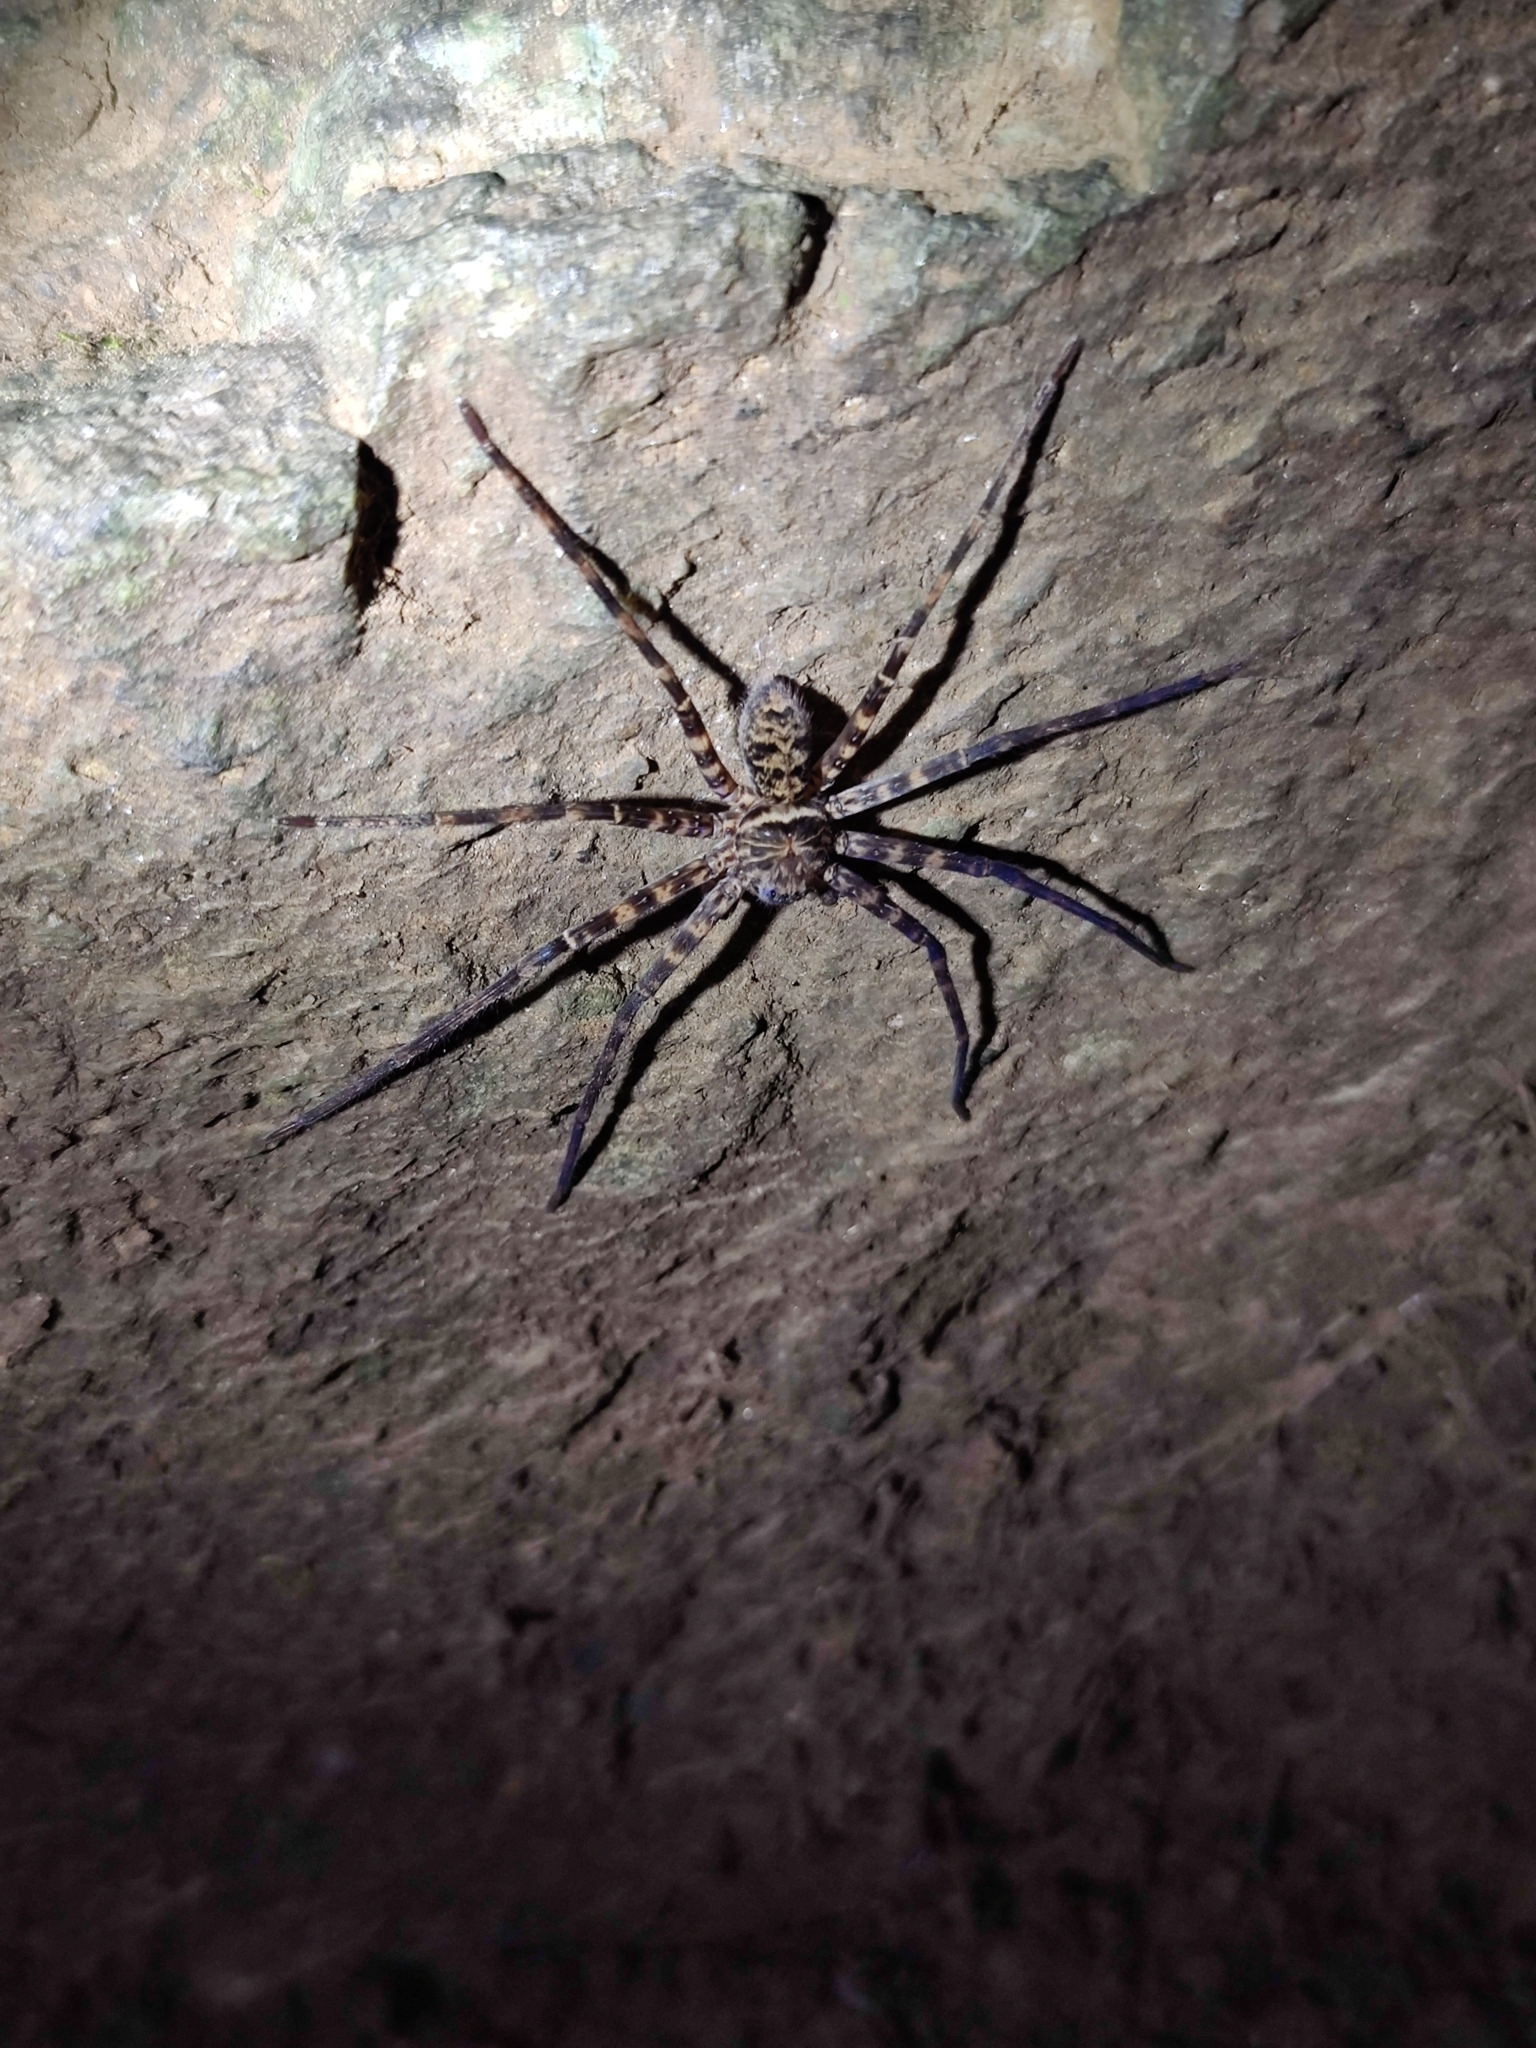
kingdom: Animalia
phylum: Arthropoda
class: Arachnida
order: Araneae
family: Sparassidae
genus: Heteropoda
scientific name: Heteropoda venatoria
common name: Huntsman spider
